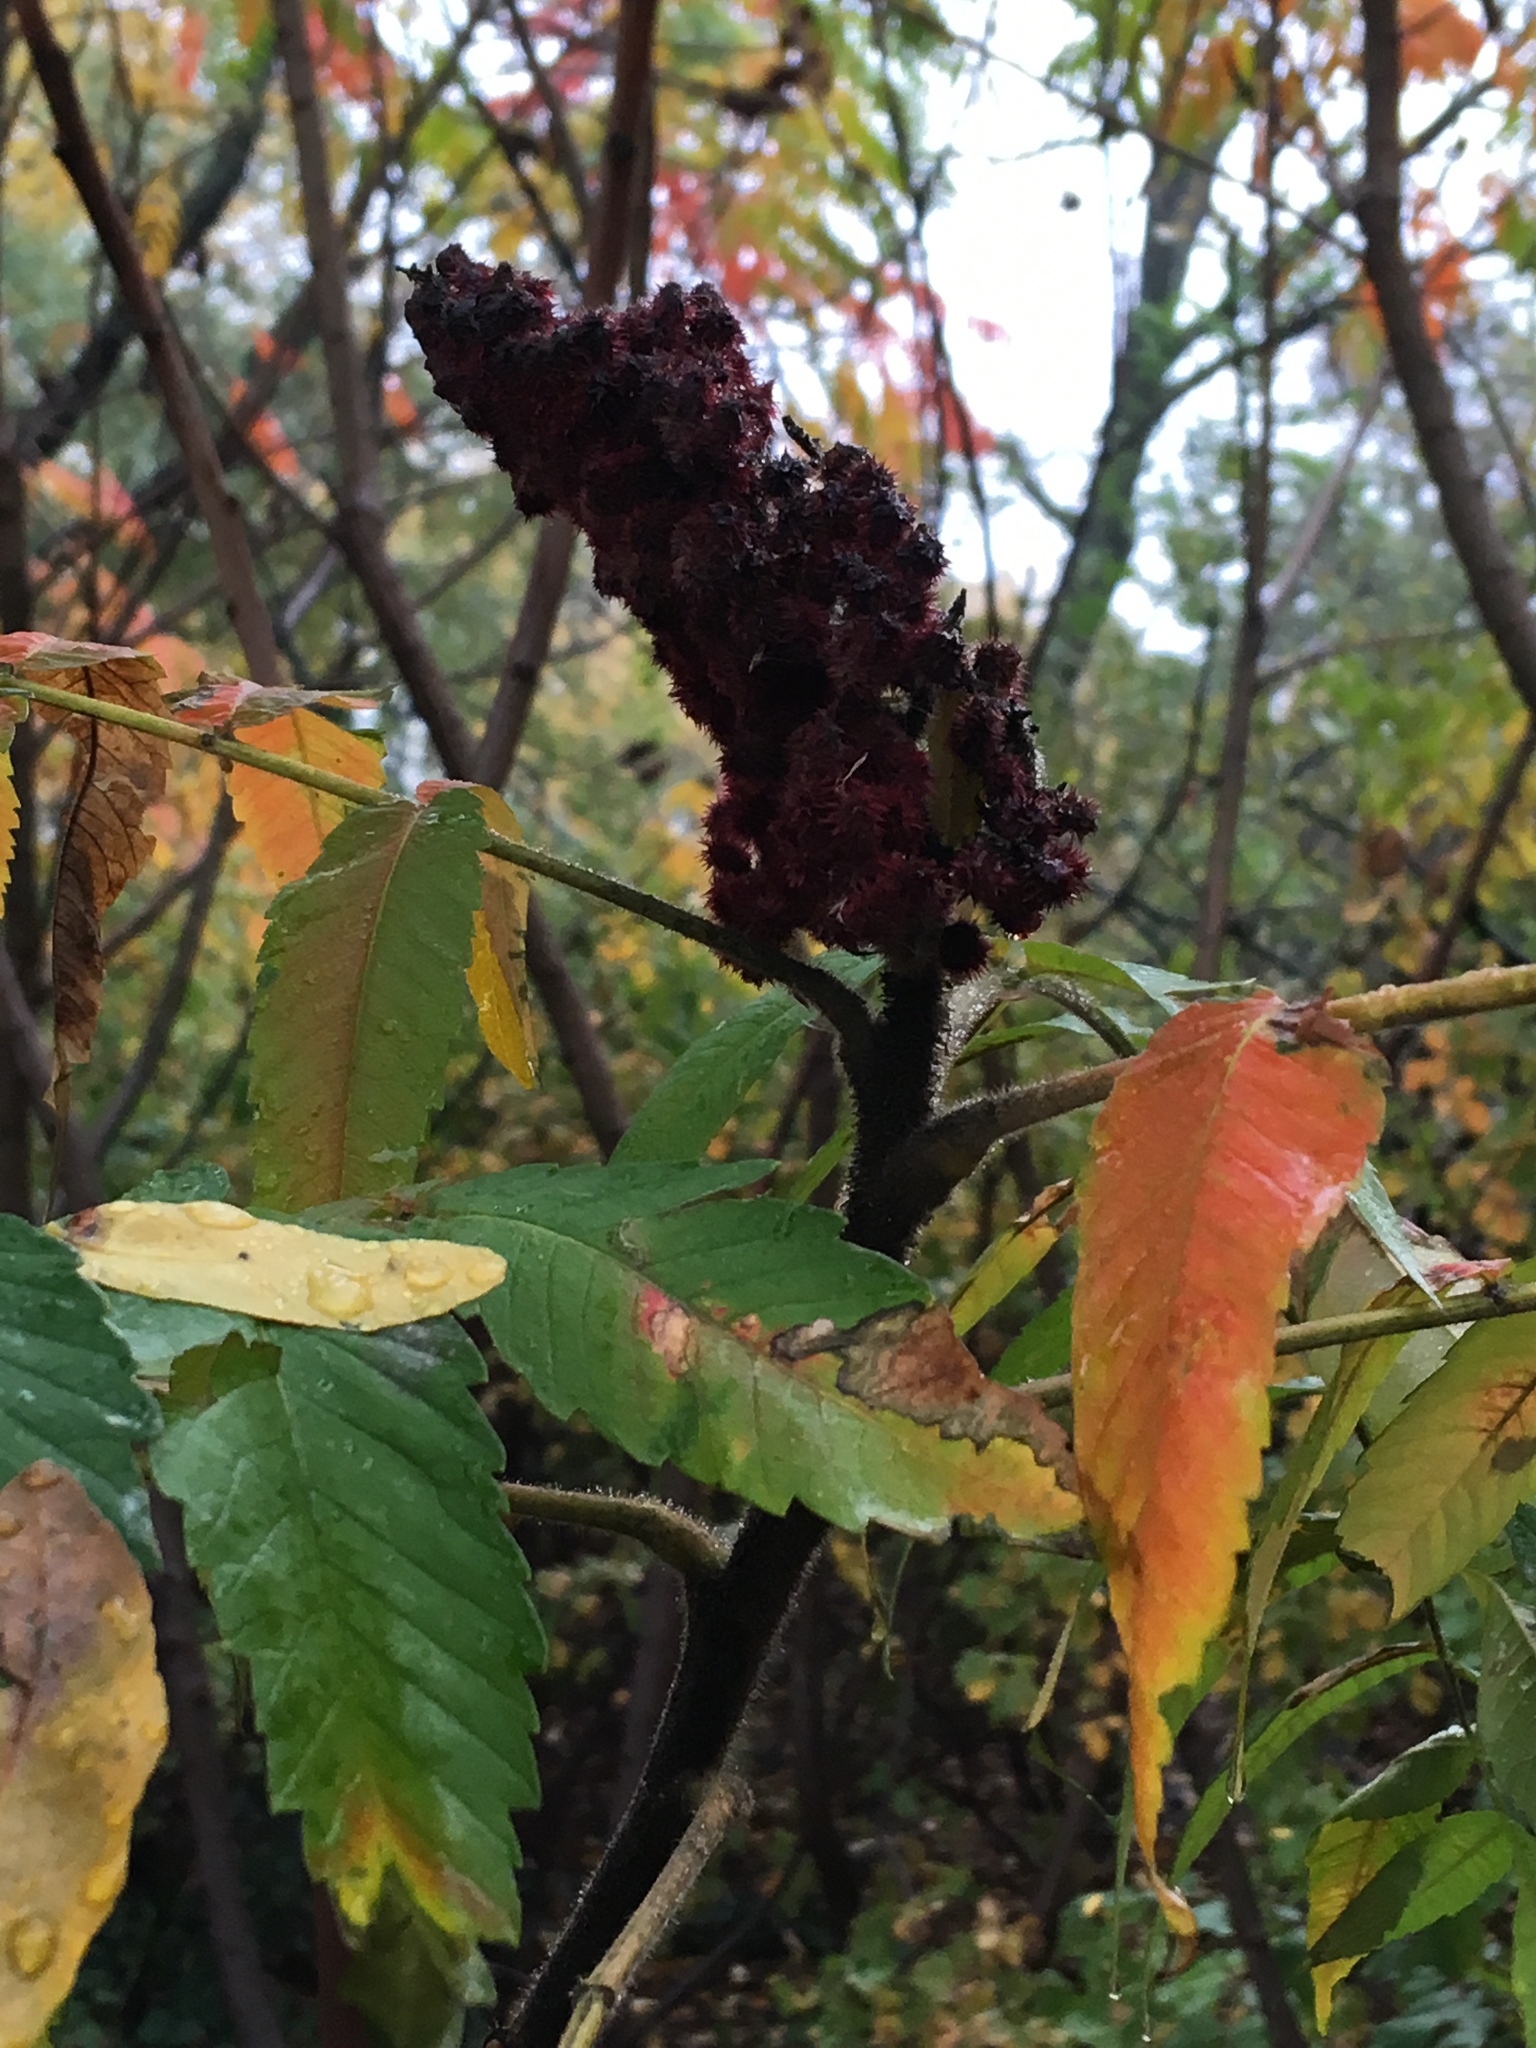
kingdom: Plantae
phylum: Tracheophyta
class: Magnoliopsida
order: Sapindales
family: Anacardiaceae
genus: Rhus
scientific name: Rhus typhina
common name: Staghorn sumac
